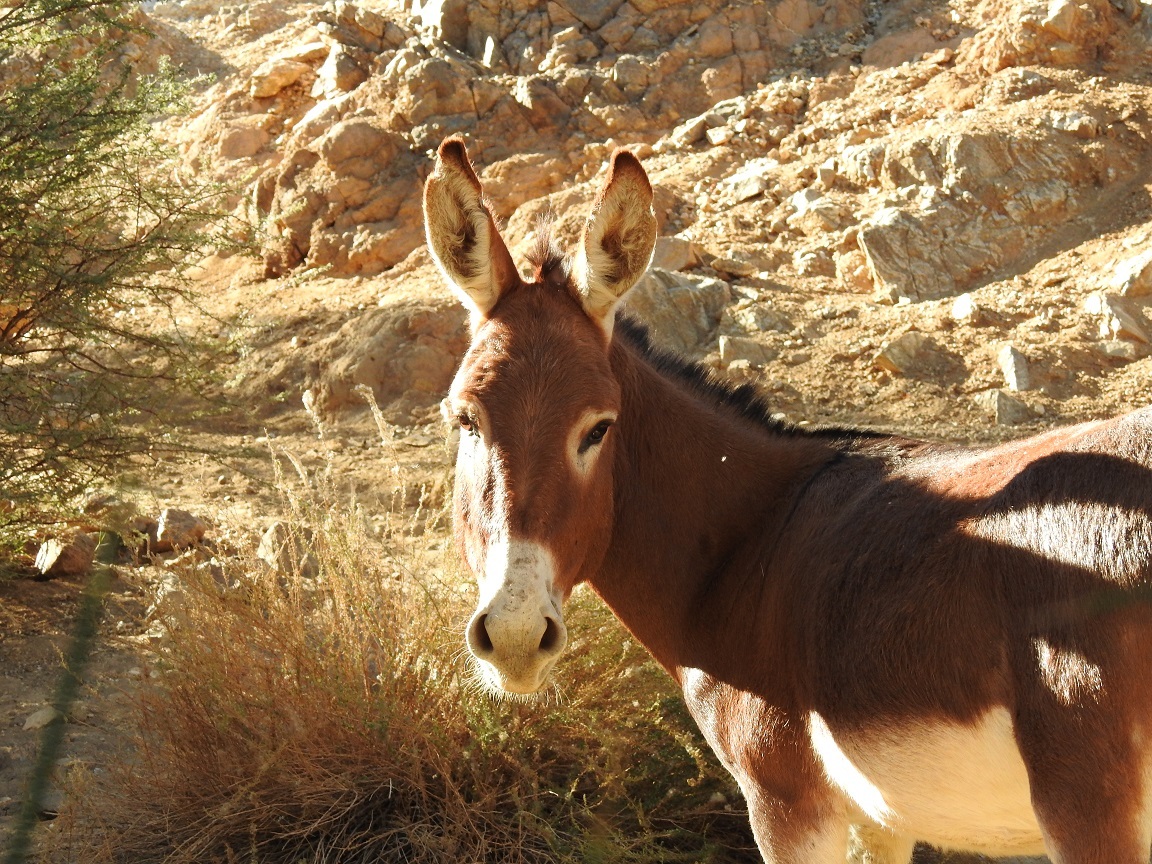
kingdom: Animalia
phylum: Chordata
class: Mammalia
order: Perissodactyla
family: Equidae
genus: Equus
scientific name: Equus asinus
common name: Ass
